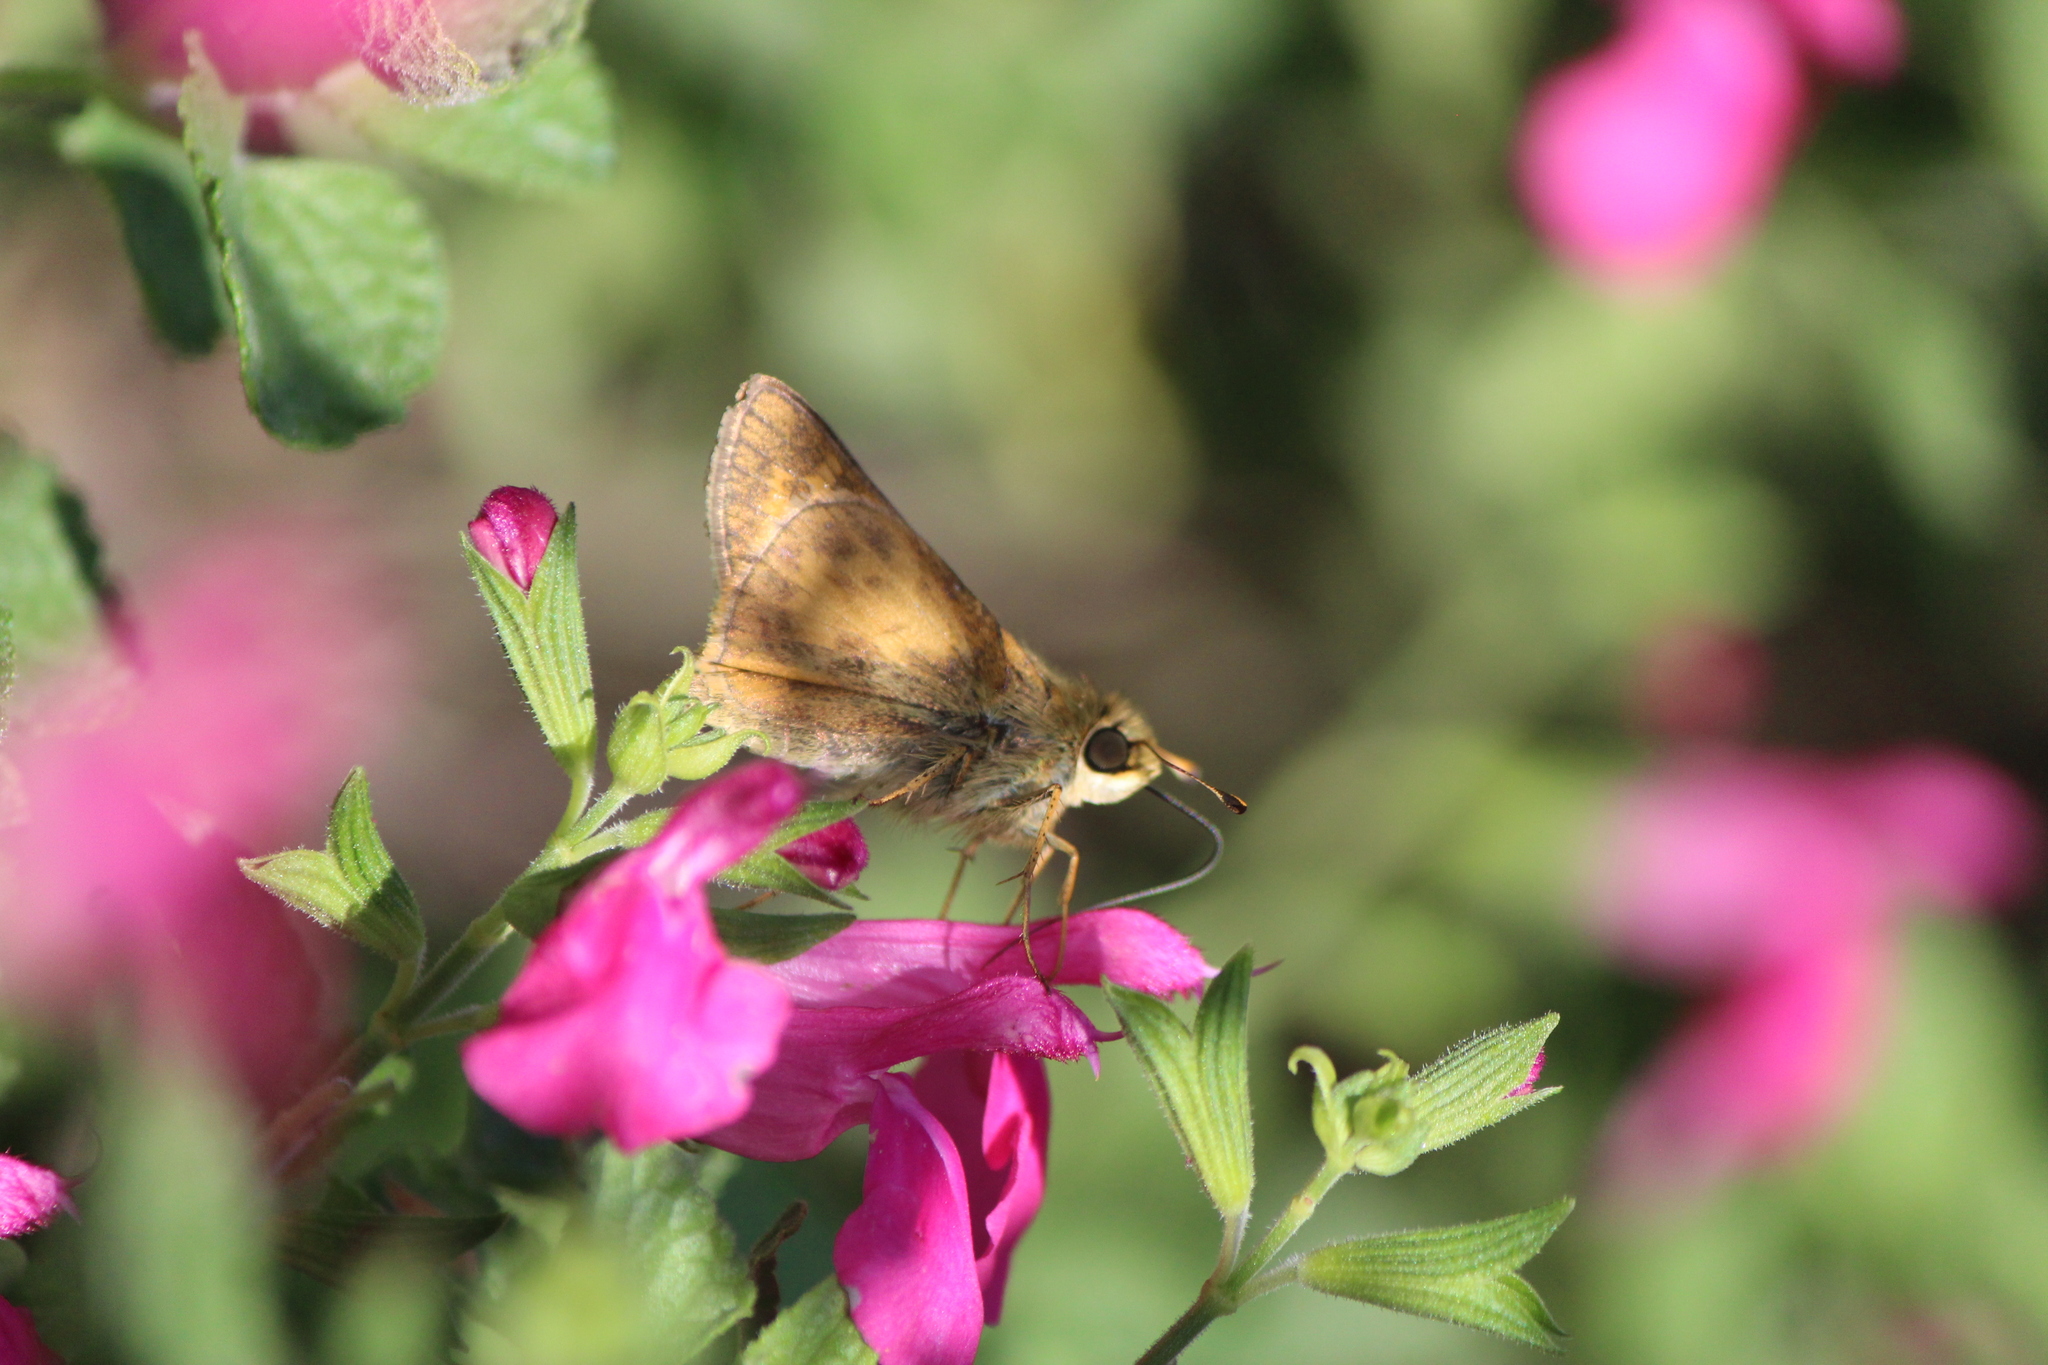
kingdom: Animalia
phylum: Arthropoda
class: Insecta
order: Lepidoptera
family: Hesperiidae
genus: Atalopedes
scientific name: Atalopedes
